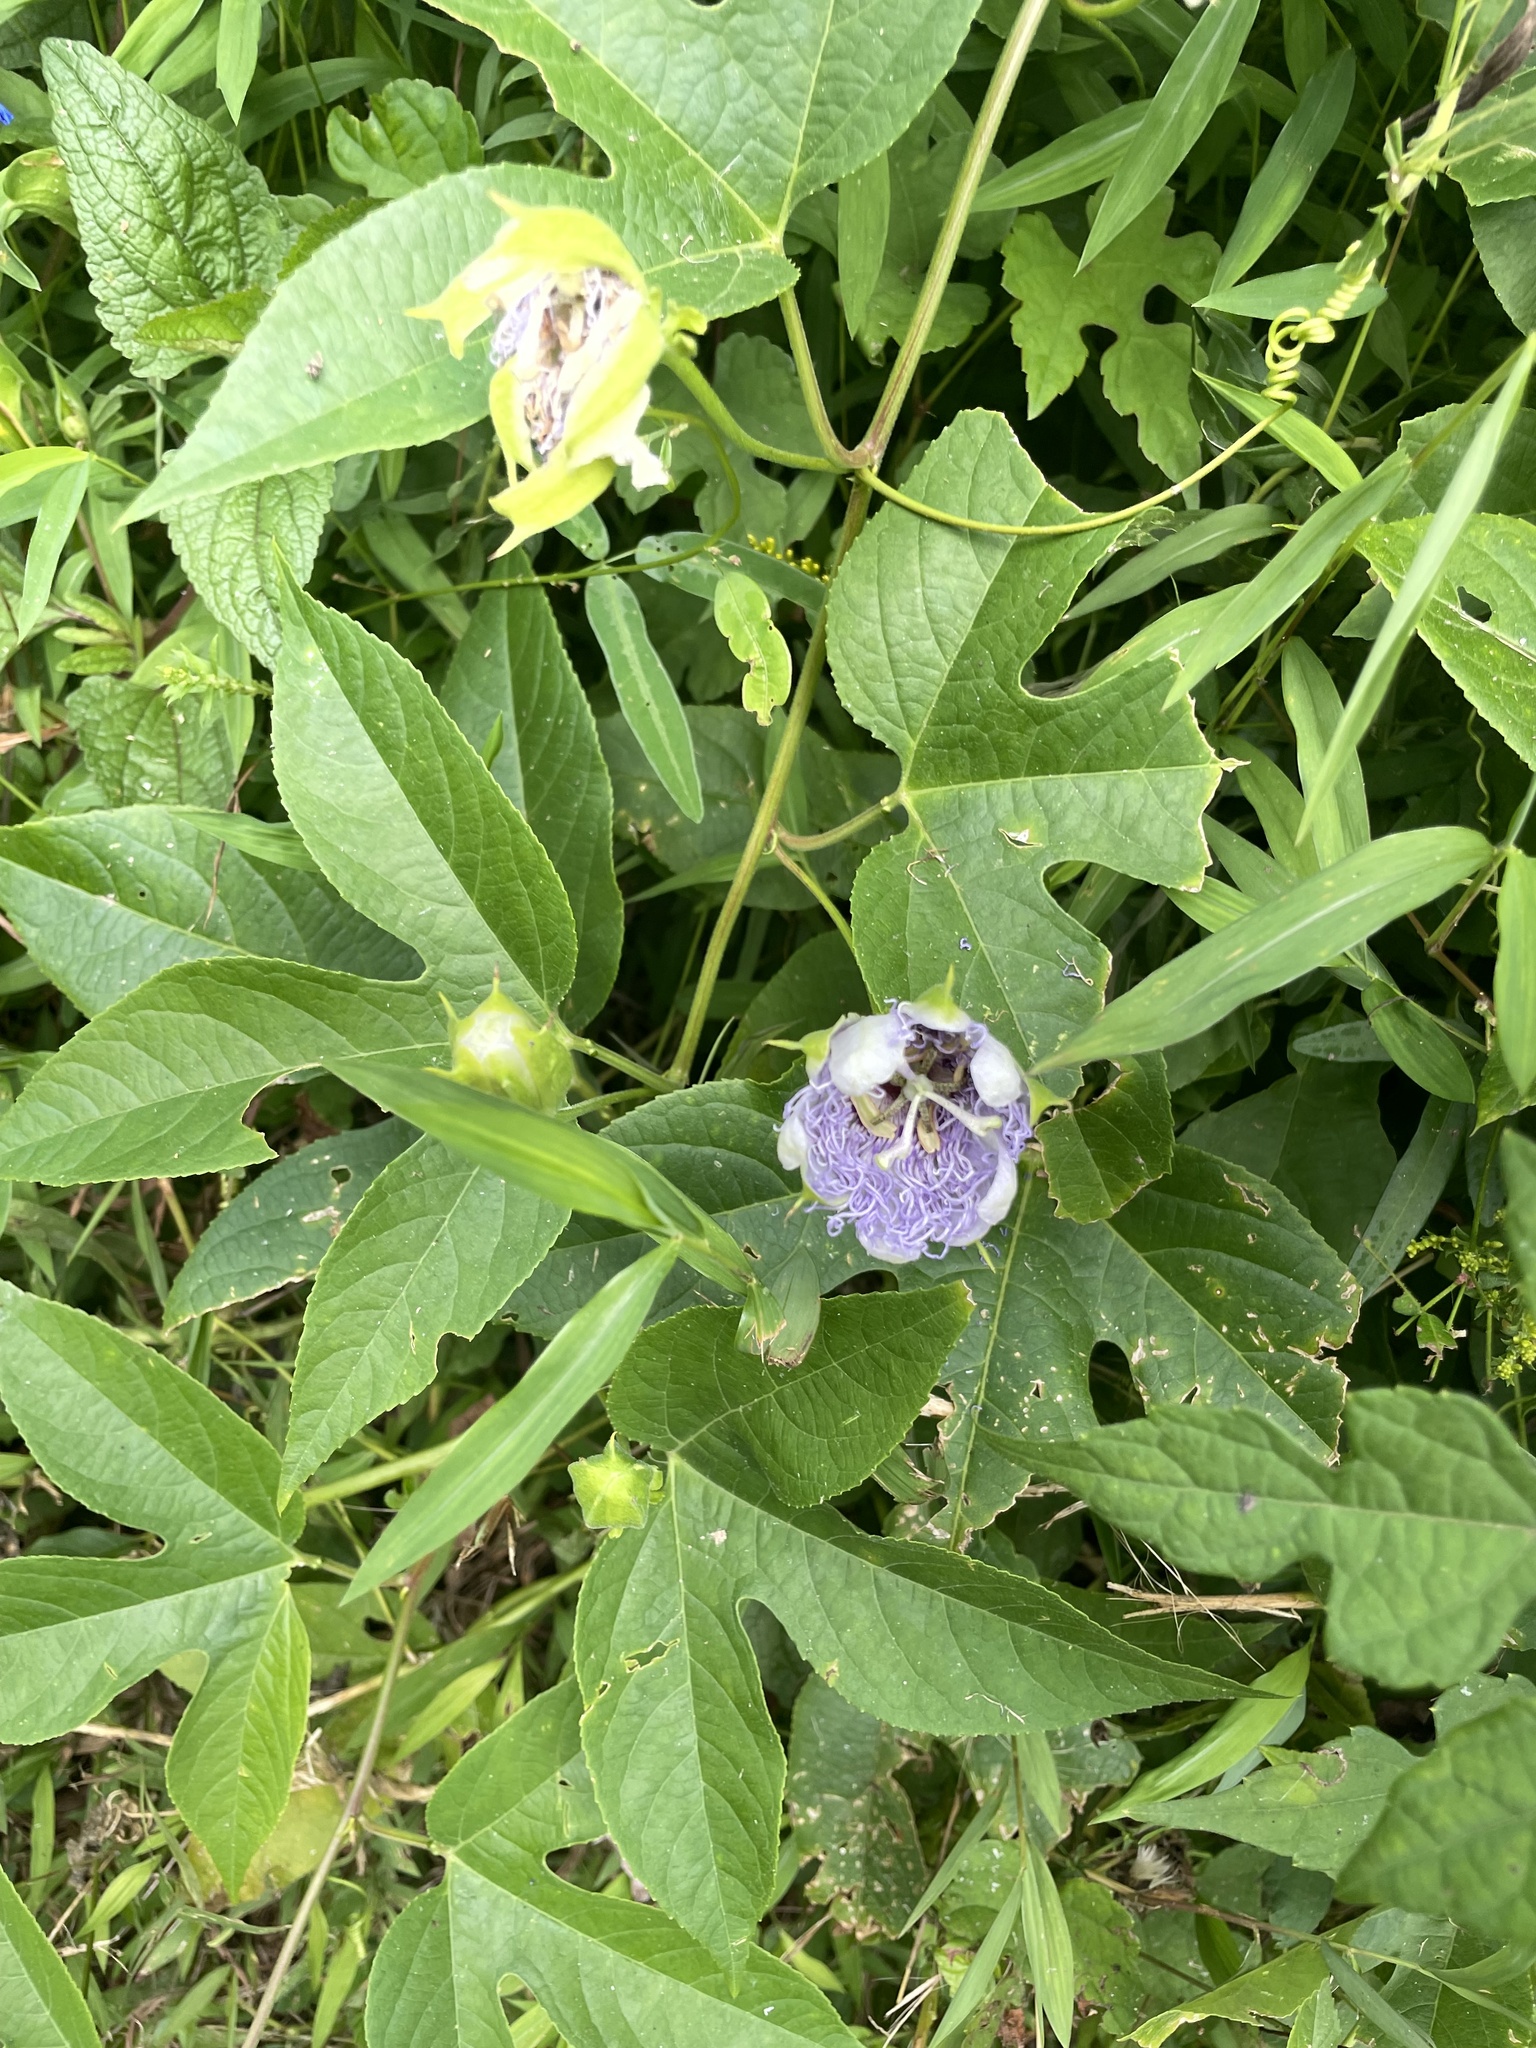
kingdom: Plantae
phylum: Tracheophyta
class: Magnoliopsida
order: Malpighiales
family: Passifloraceae
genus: Passiflora
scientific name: Passiflora incarnata
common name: Apricot-vine
